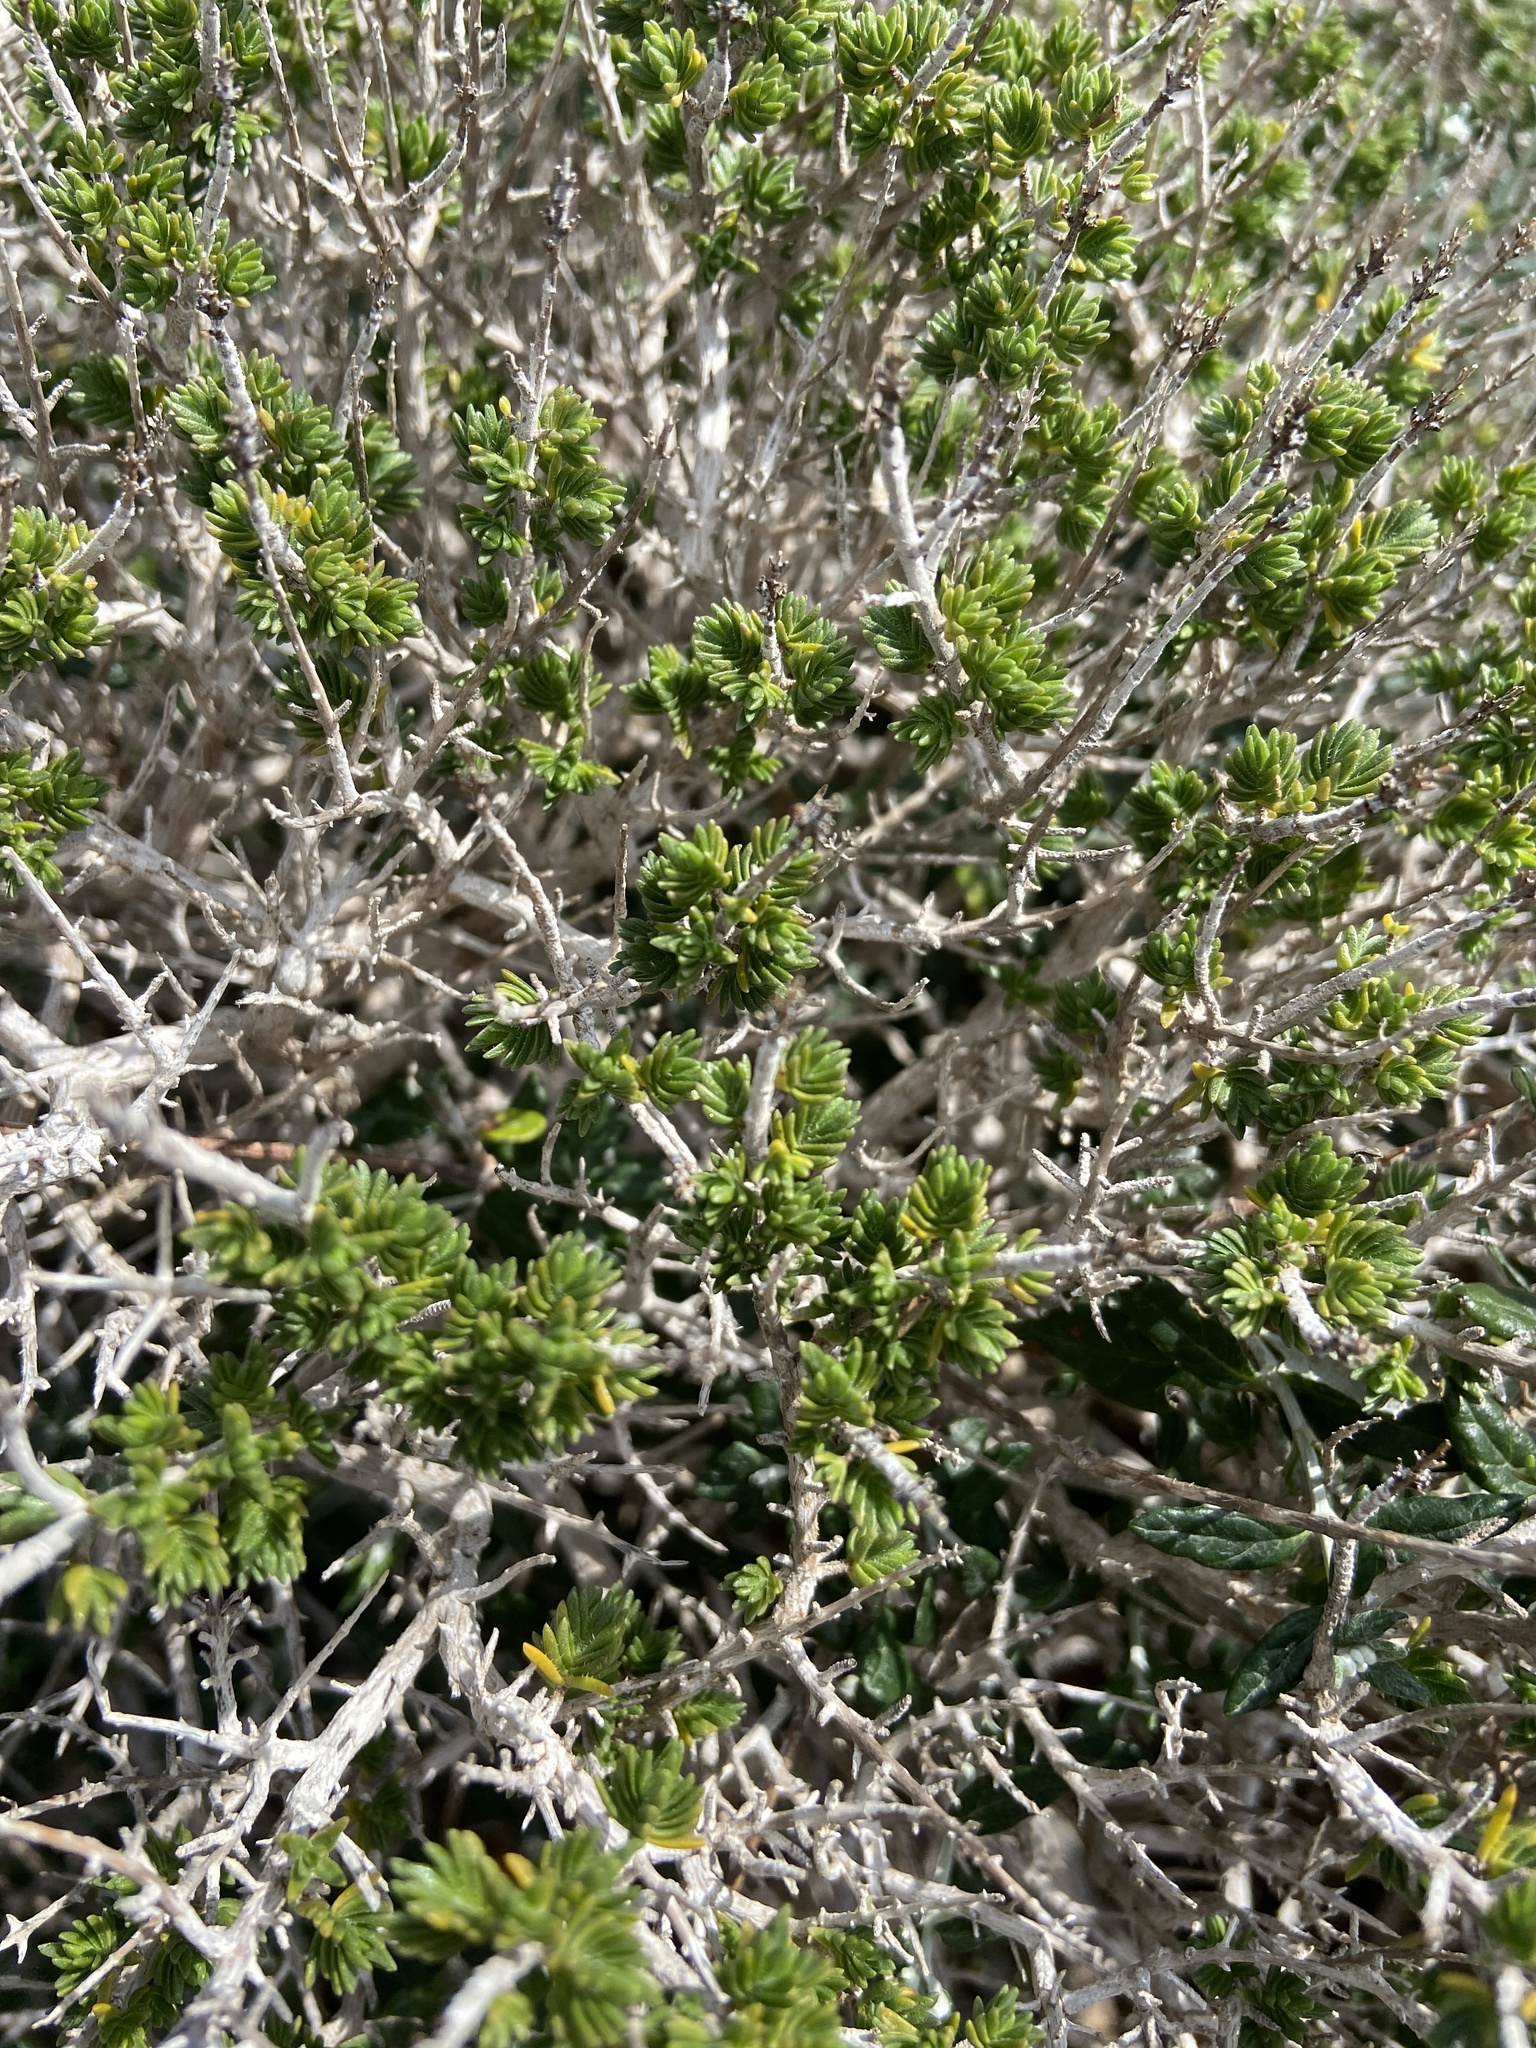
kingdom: Plantae
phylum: Tracheophyta
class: Magnoliopsida
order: Lamiales
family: Lamiaceae
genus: Thymbra
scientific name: Thymbra capitata
